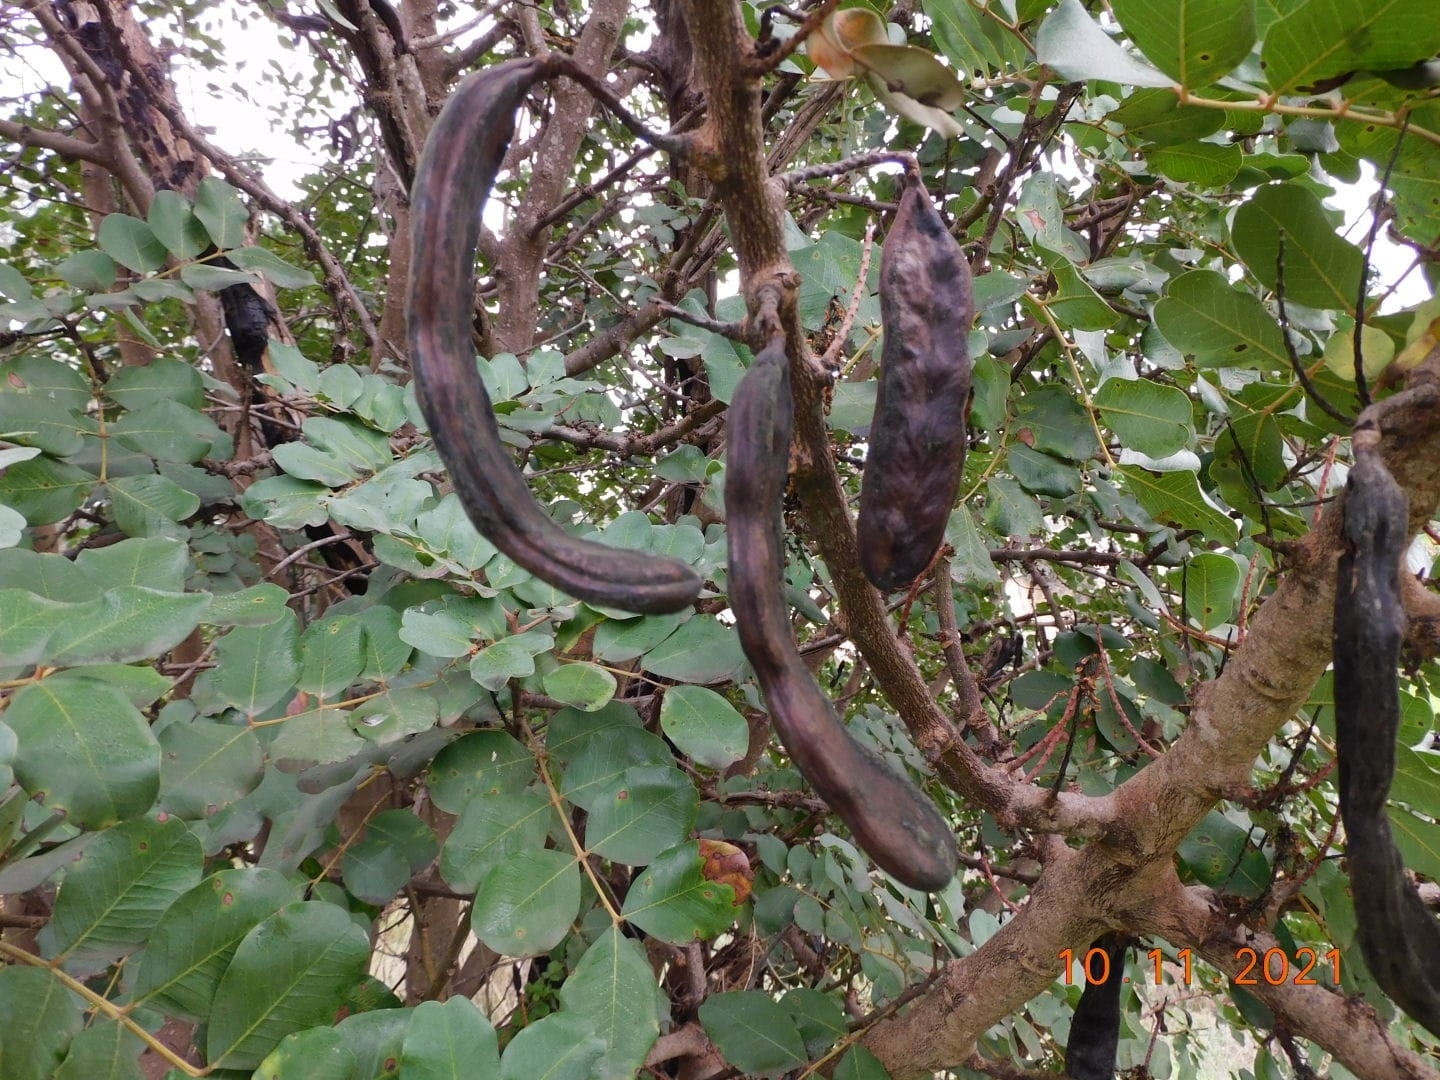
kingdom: Plantae
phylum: Tracheophyta
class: Magnoliopsida
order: Fabales
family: Fabaceae
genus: Ceratonia
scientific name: Ceratonia siliqua
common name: Carob
